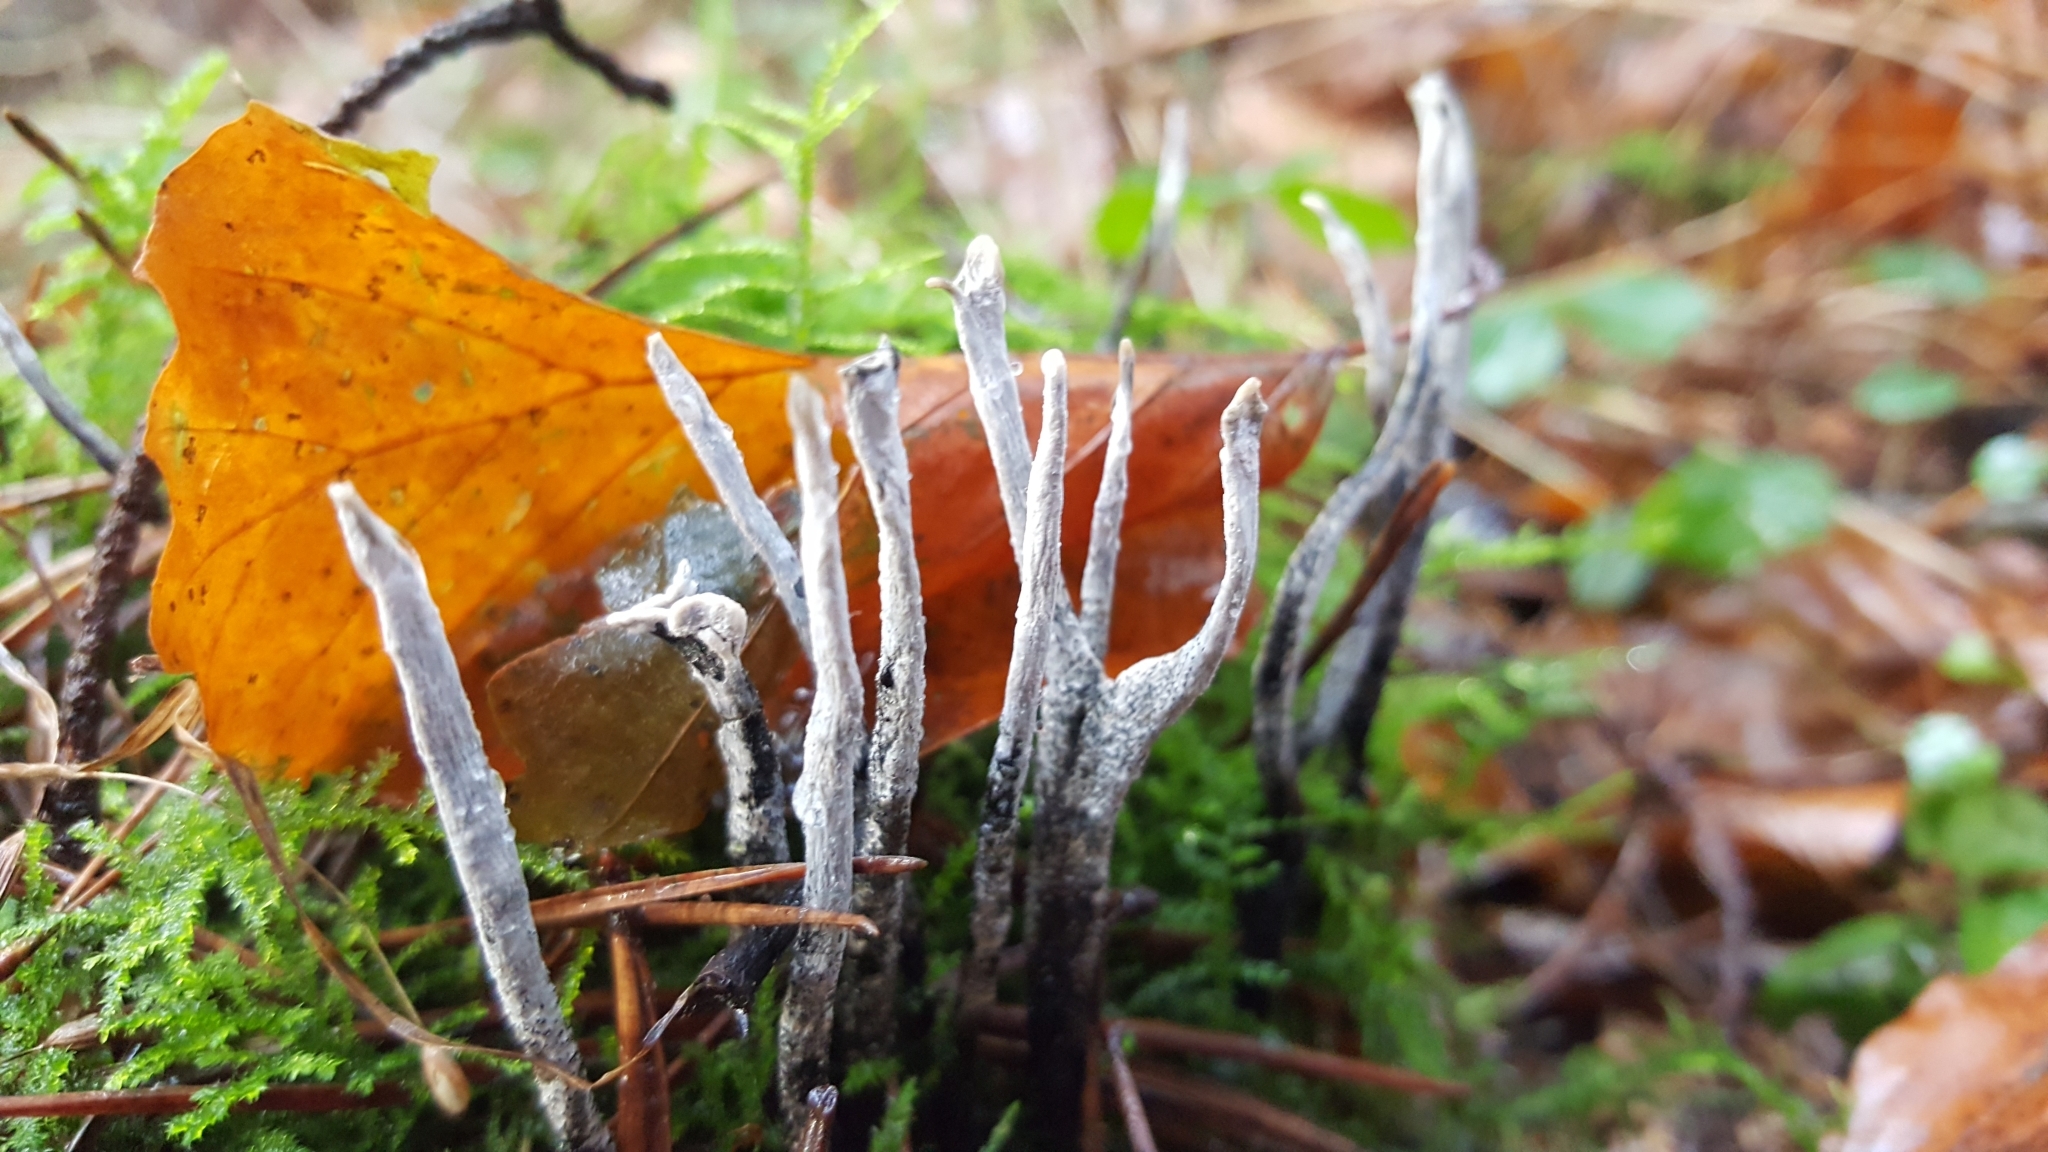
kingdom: Fungi
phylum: Ascomycota
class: Sordariomycetes
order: Xylariales
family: Xylariaceae
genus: Xylaria
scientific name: Xylaria hypoxylon
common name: Candle-snuff fungus
